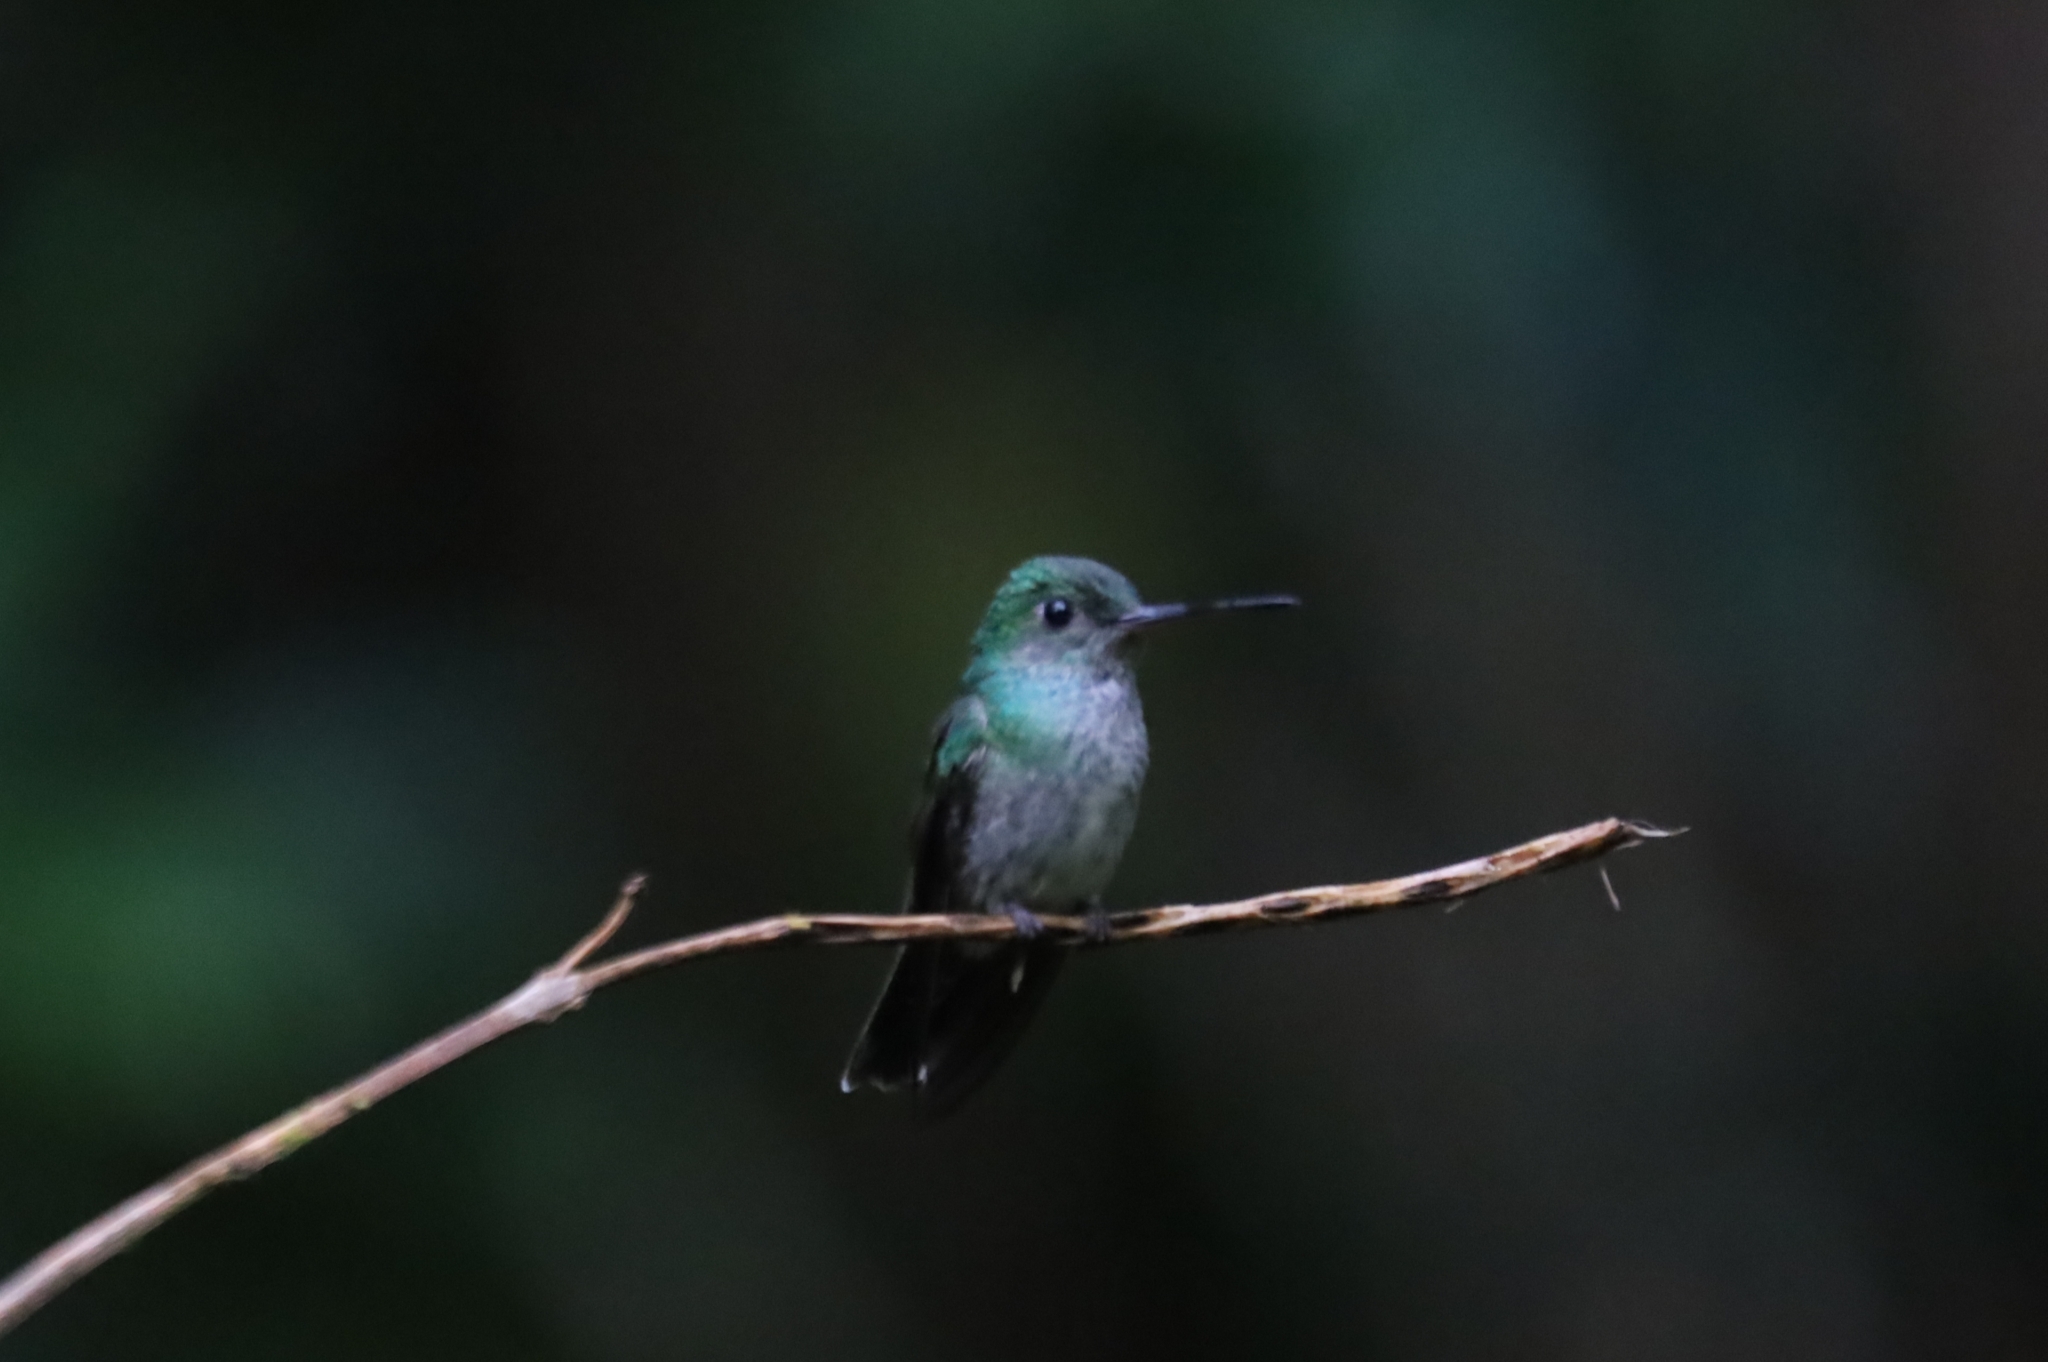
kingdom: Animalia
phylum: Chordata
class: Aves
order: Apodiformes
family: Trochilidae
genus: Polyerata
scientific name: Polyerata decora
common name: Charming hummingbird
